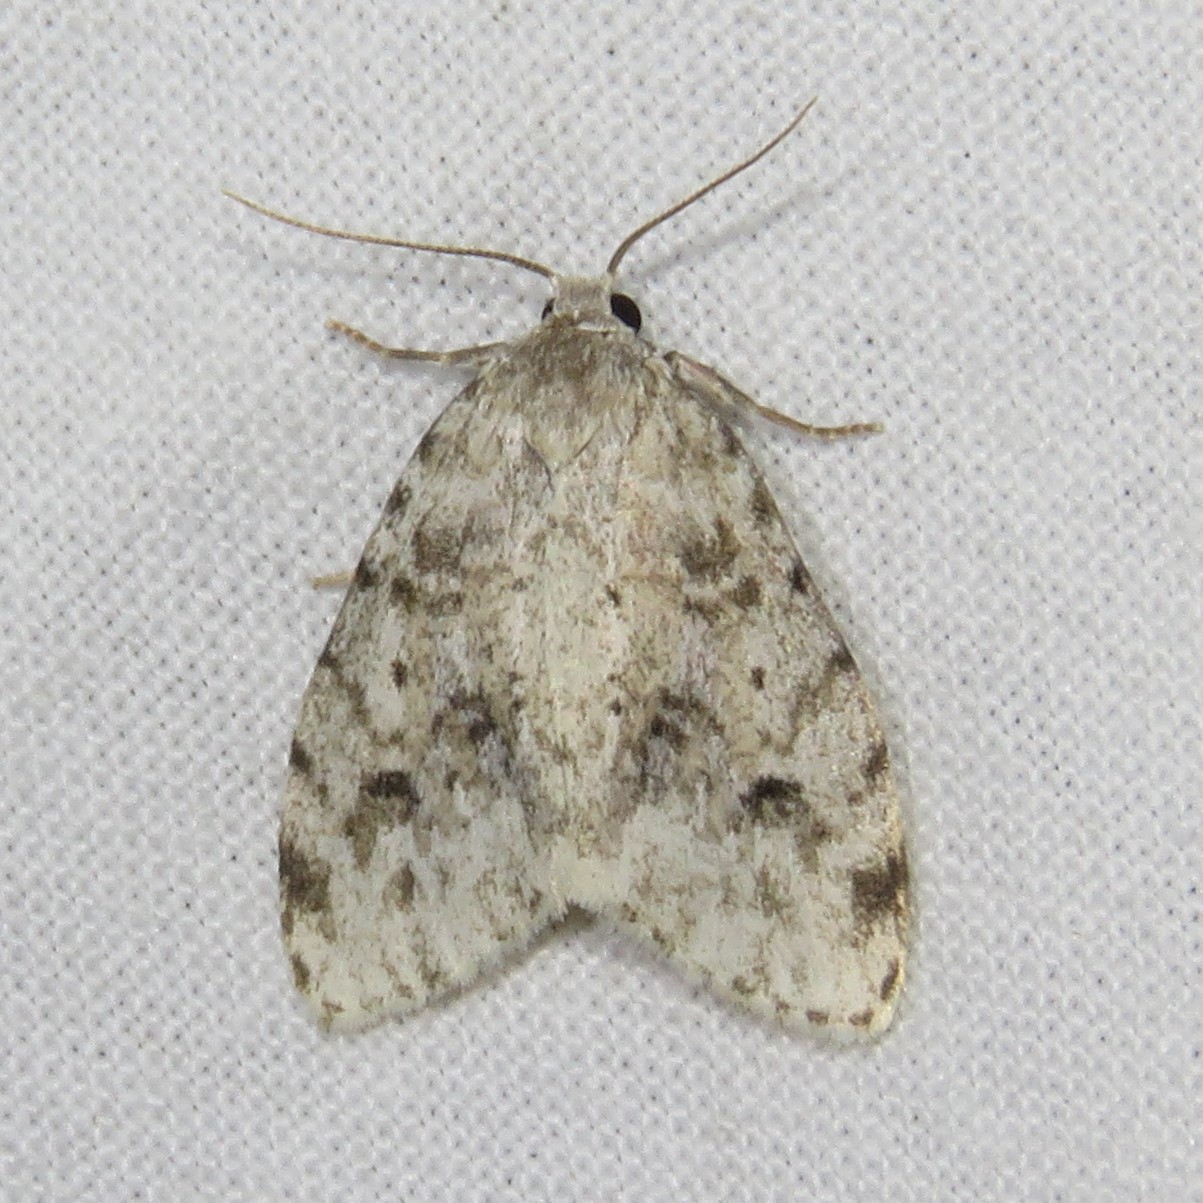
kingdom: Animalia
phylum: Arthropoda
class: Insecta
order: Lepidoptera
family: Erebidae
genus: Clemensia
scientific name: Clemensia albata
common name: Little white lichen moth
